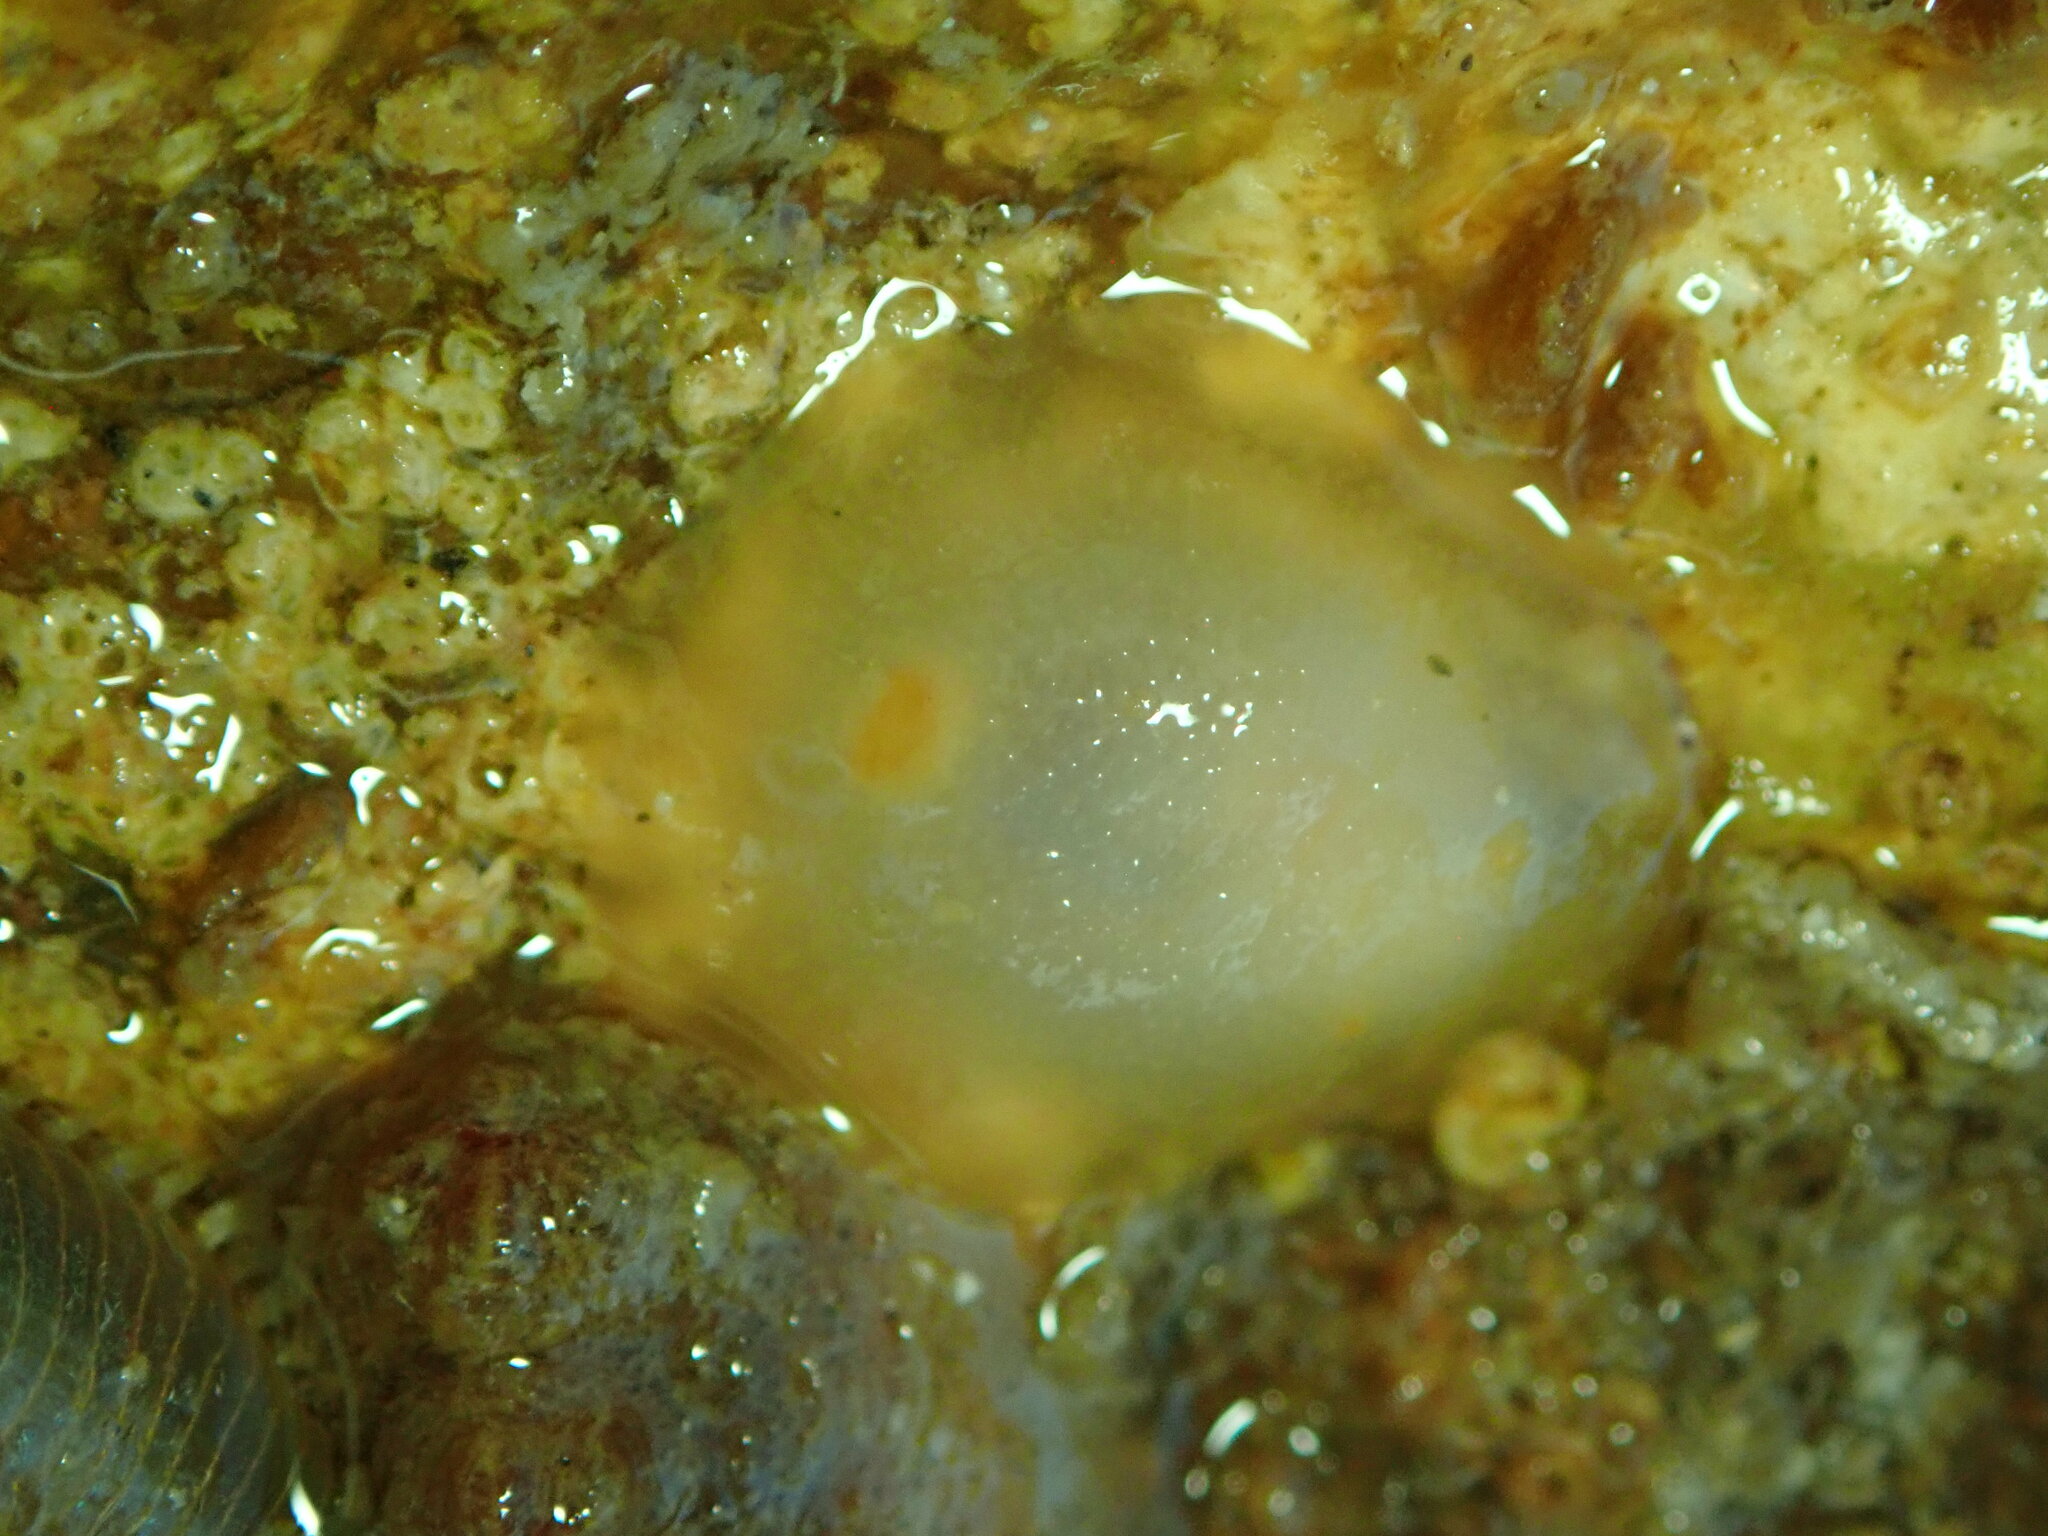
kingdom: Animalia
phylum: Mollusca
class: Gastropoda
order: Nudibranchia
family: Dorididae
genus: Conualevia
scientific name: Conualevia marcusi
